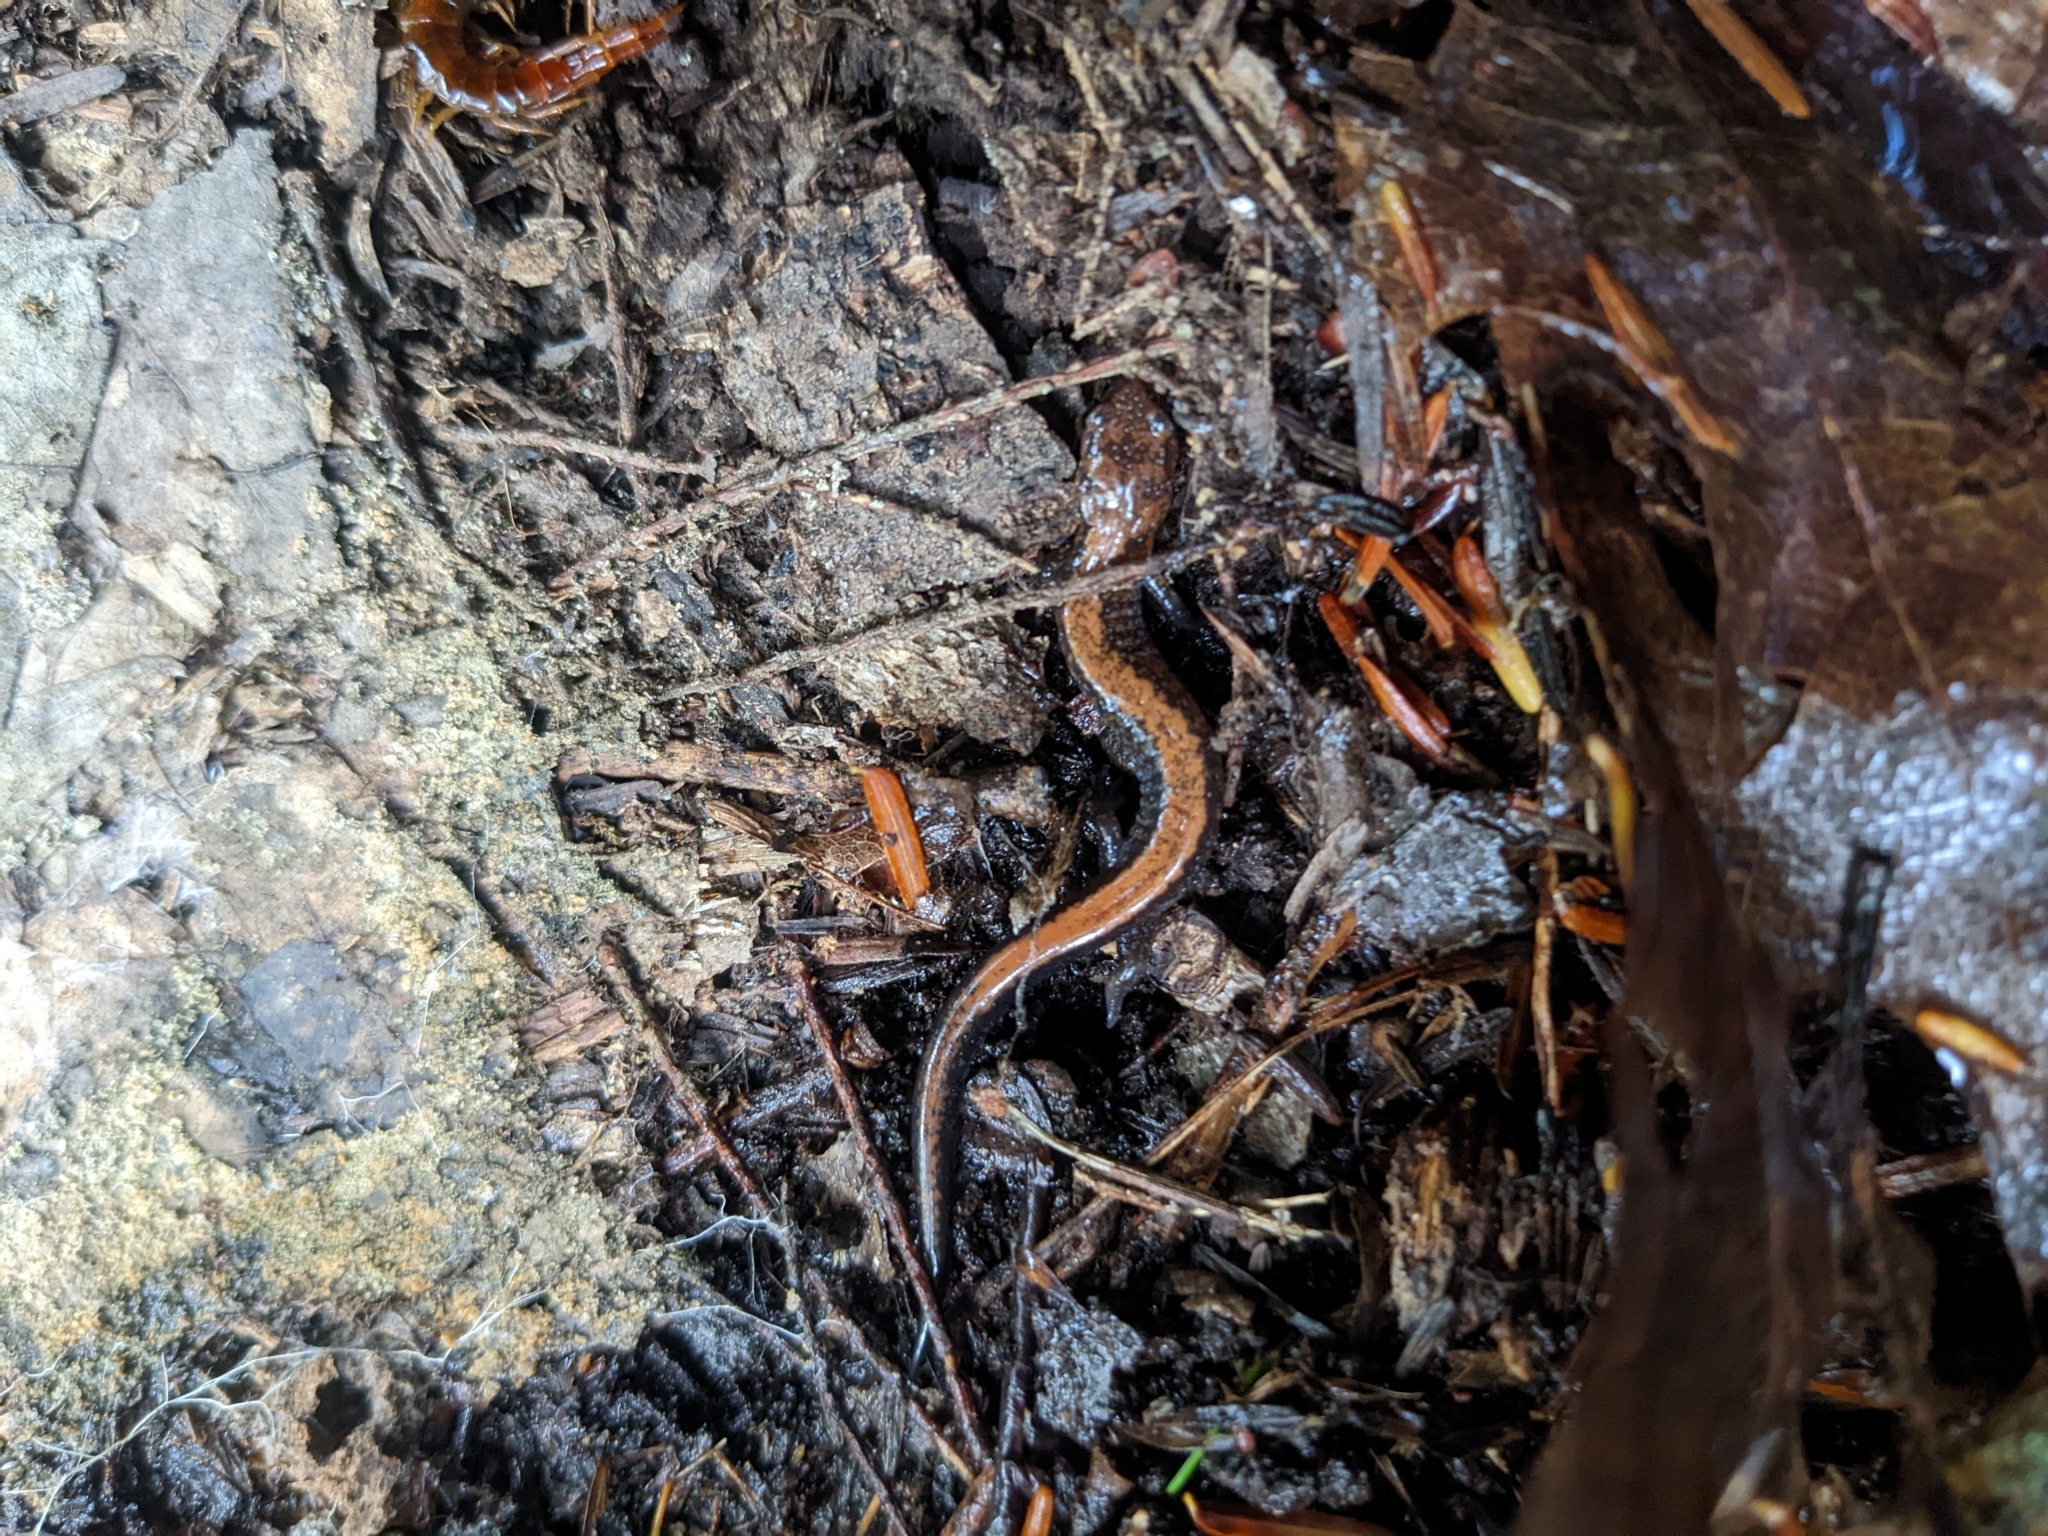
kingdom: Animalia
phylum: Chordata
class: Amphibia
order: Caudata
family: Plethodontidae
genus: Plethodon
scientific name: Plethodon cinereus
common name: Redback salamander
